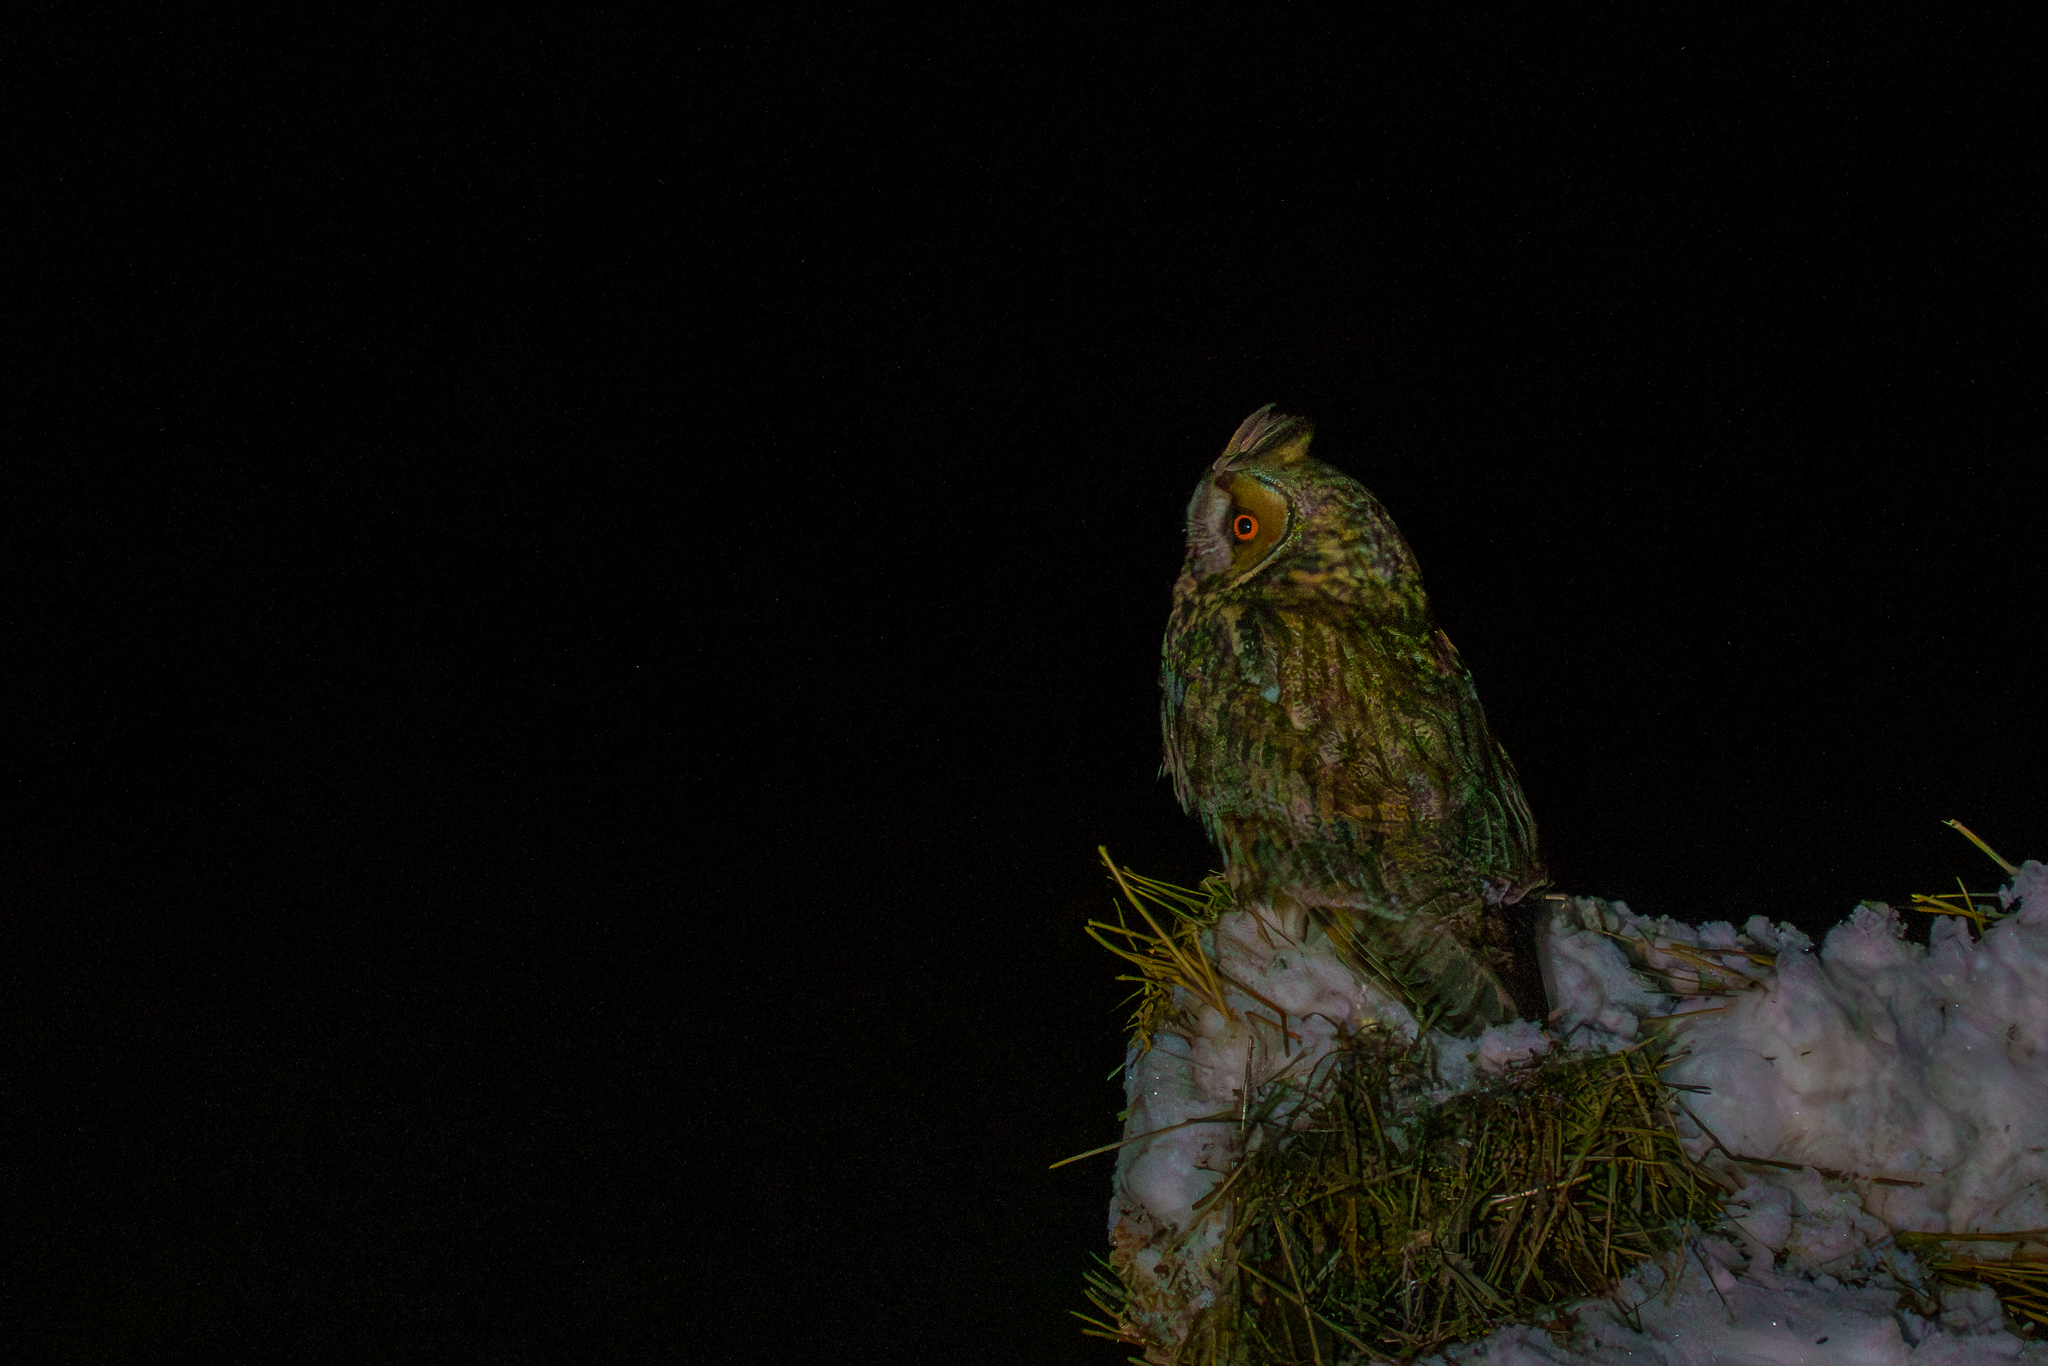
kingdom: Animalia
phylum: Chordata
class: Aves
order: Strigiformes
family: Strigidae
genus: Asio
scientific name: Asio otus
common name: Long-eared owl
